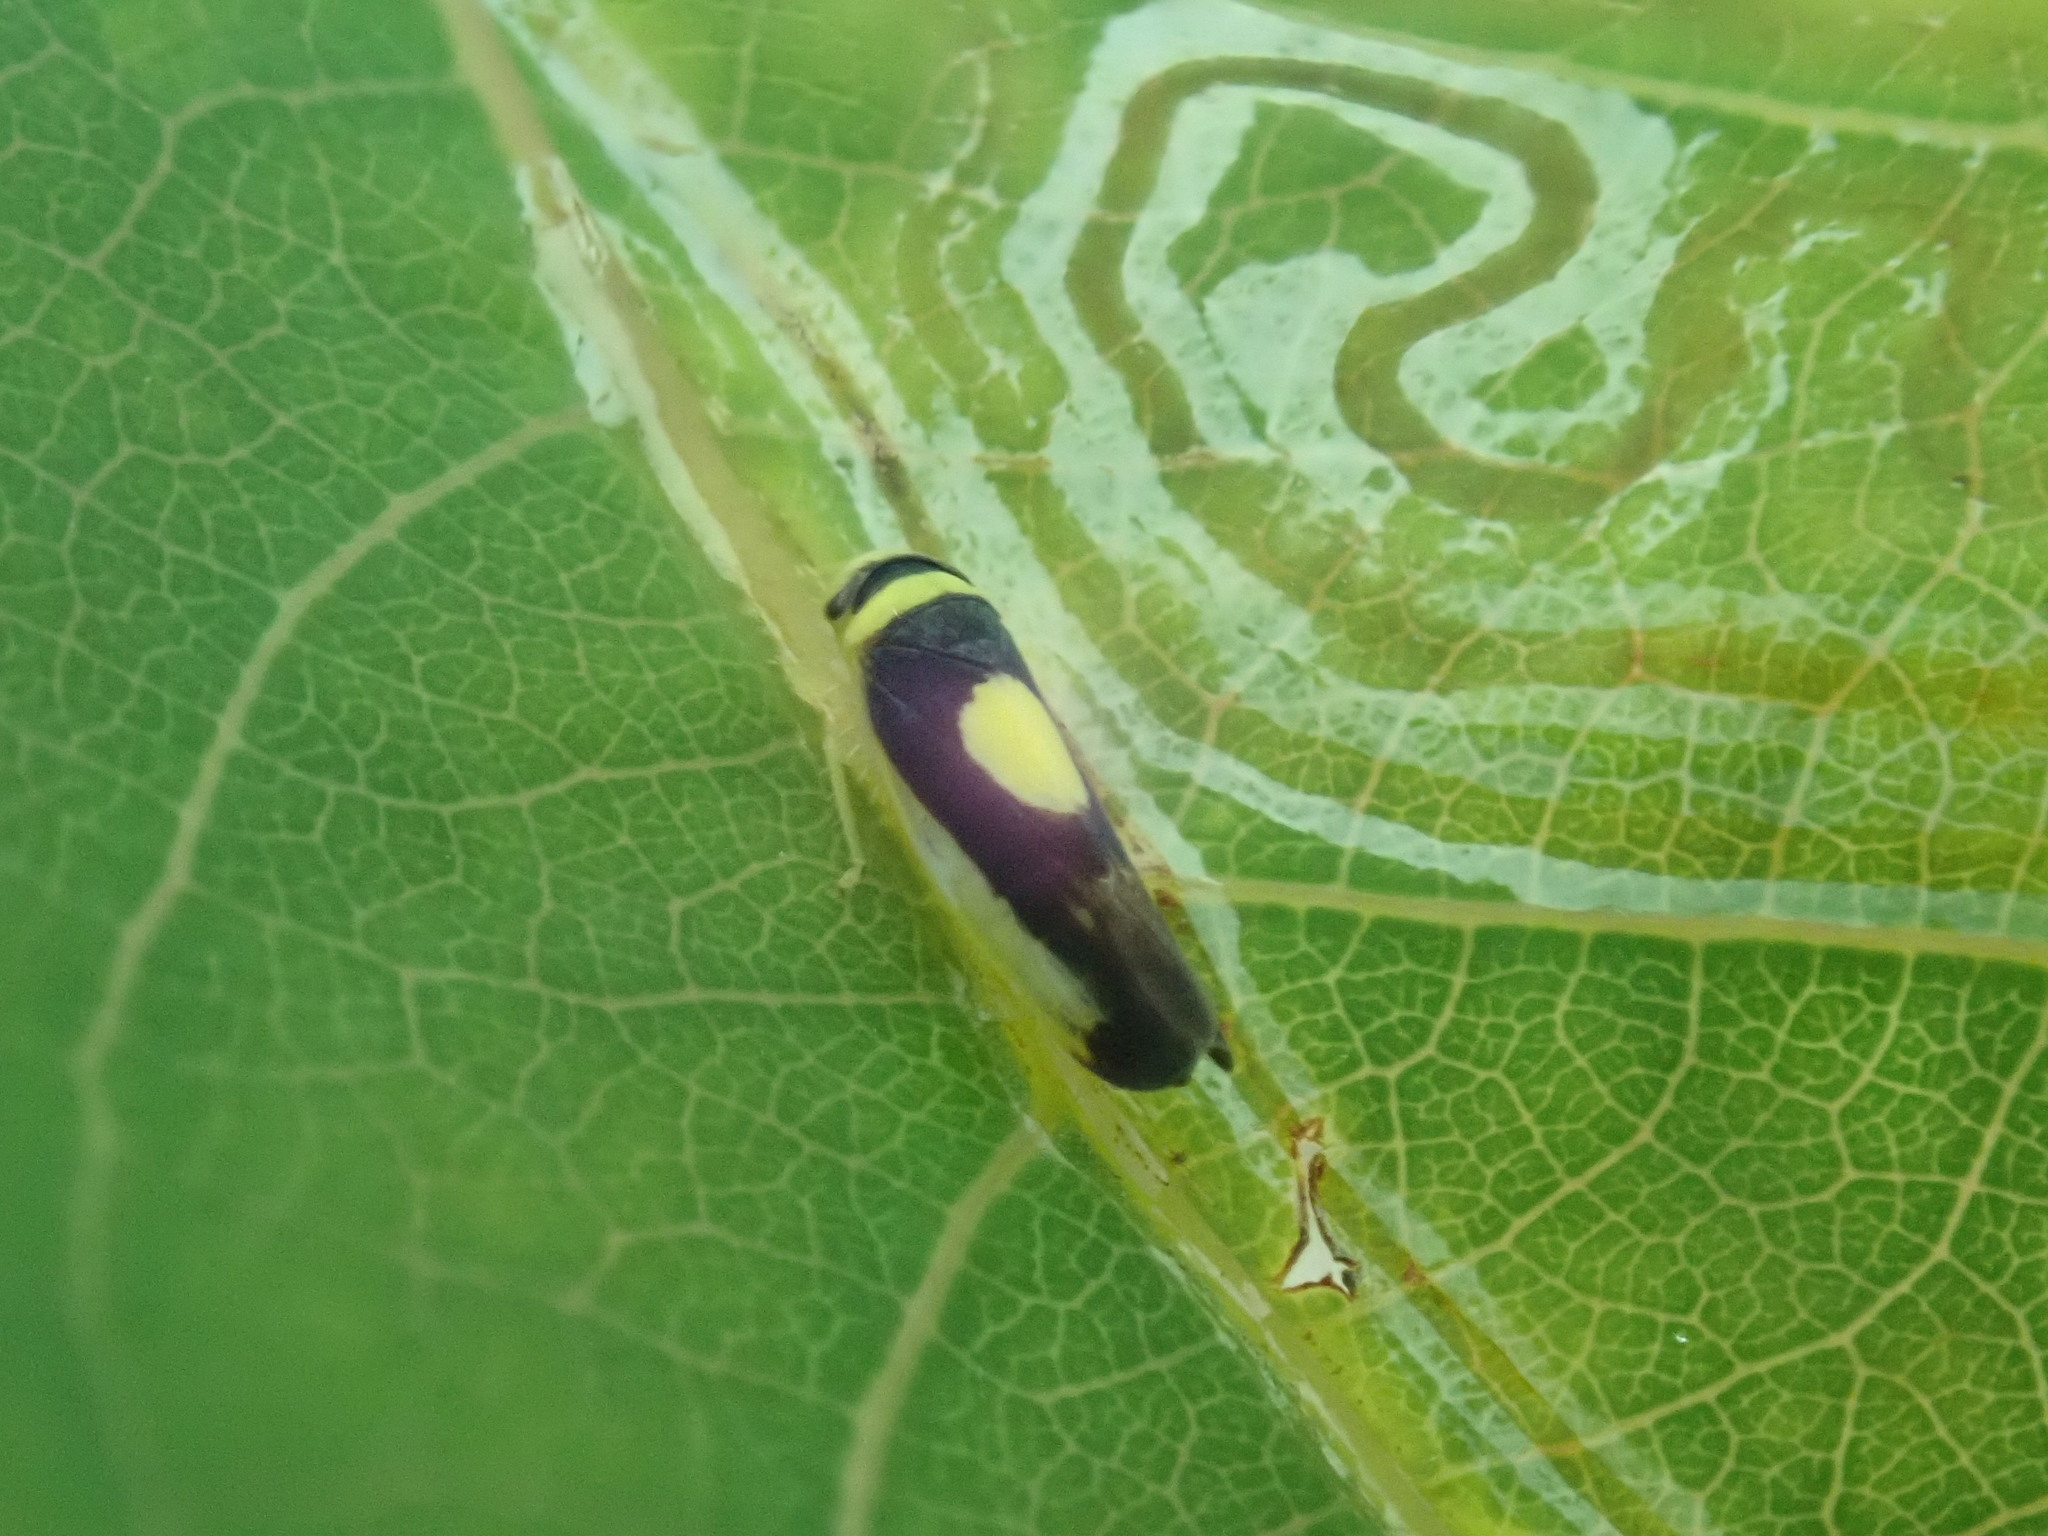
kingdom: Animalia
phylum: Arthropoda
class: Insecta
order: Hemiptera
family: Cicadellidae
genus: Colladonus
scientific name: Colladonus clitellarius
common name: The saddleback leafhopper
